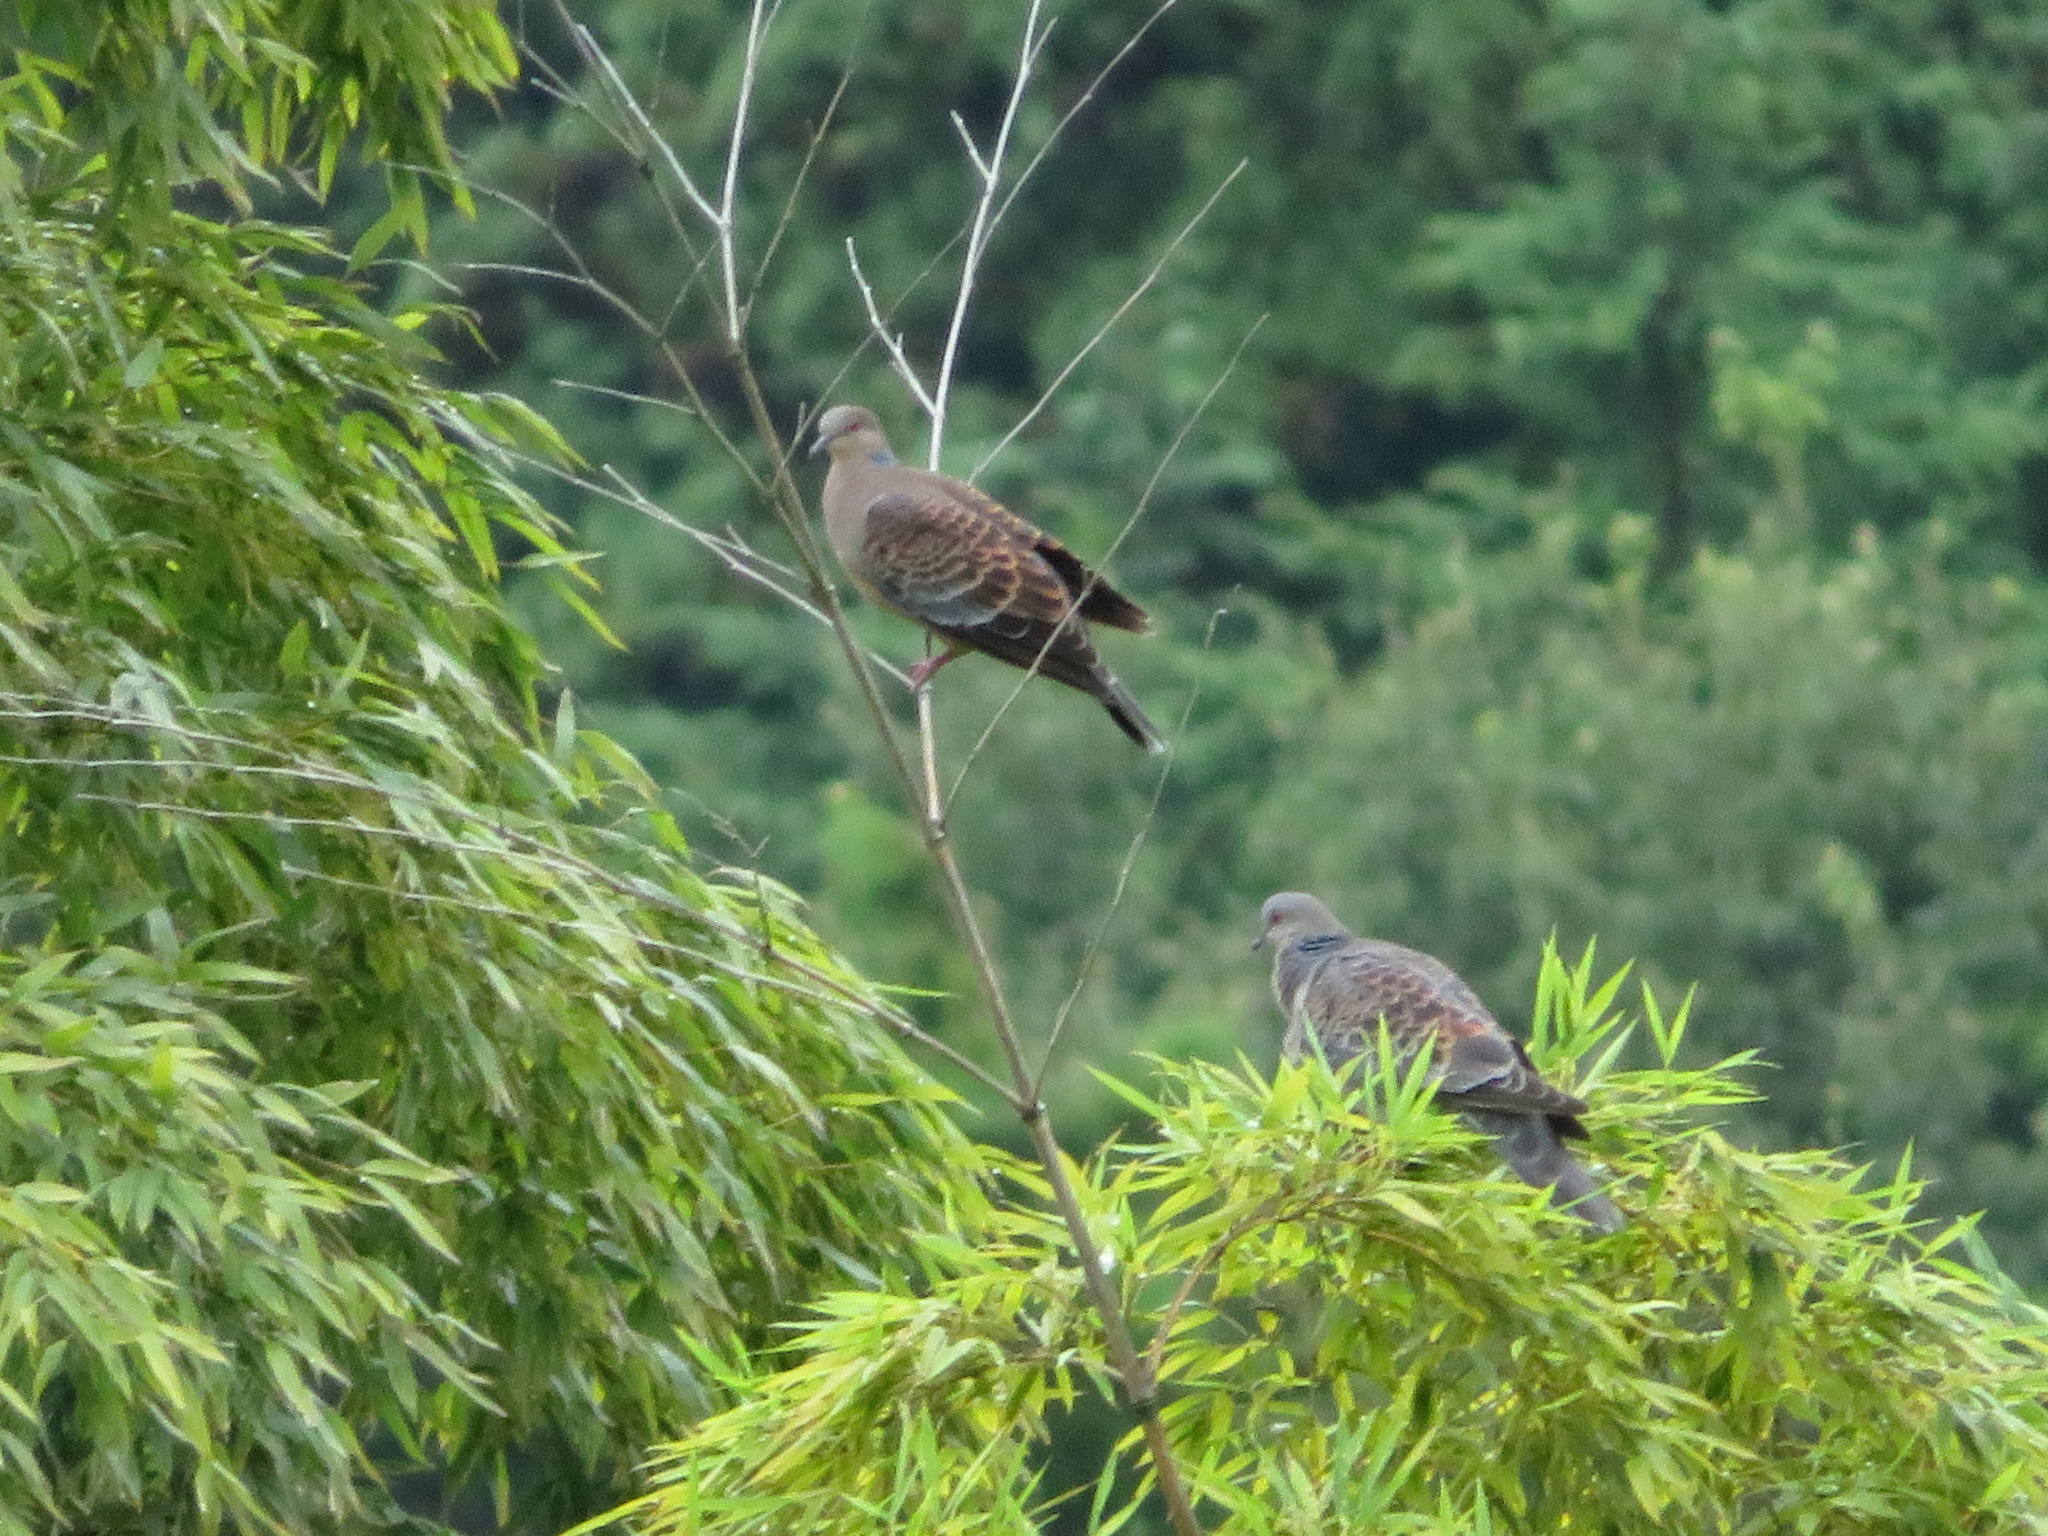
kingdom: Animalia
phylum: Chordata
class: Aves
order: Columbiformes
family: Columbidae
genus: Streptopelia
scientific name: Streptopelia orientalis
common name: Oriental turtle dove
